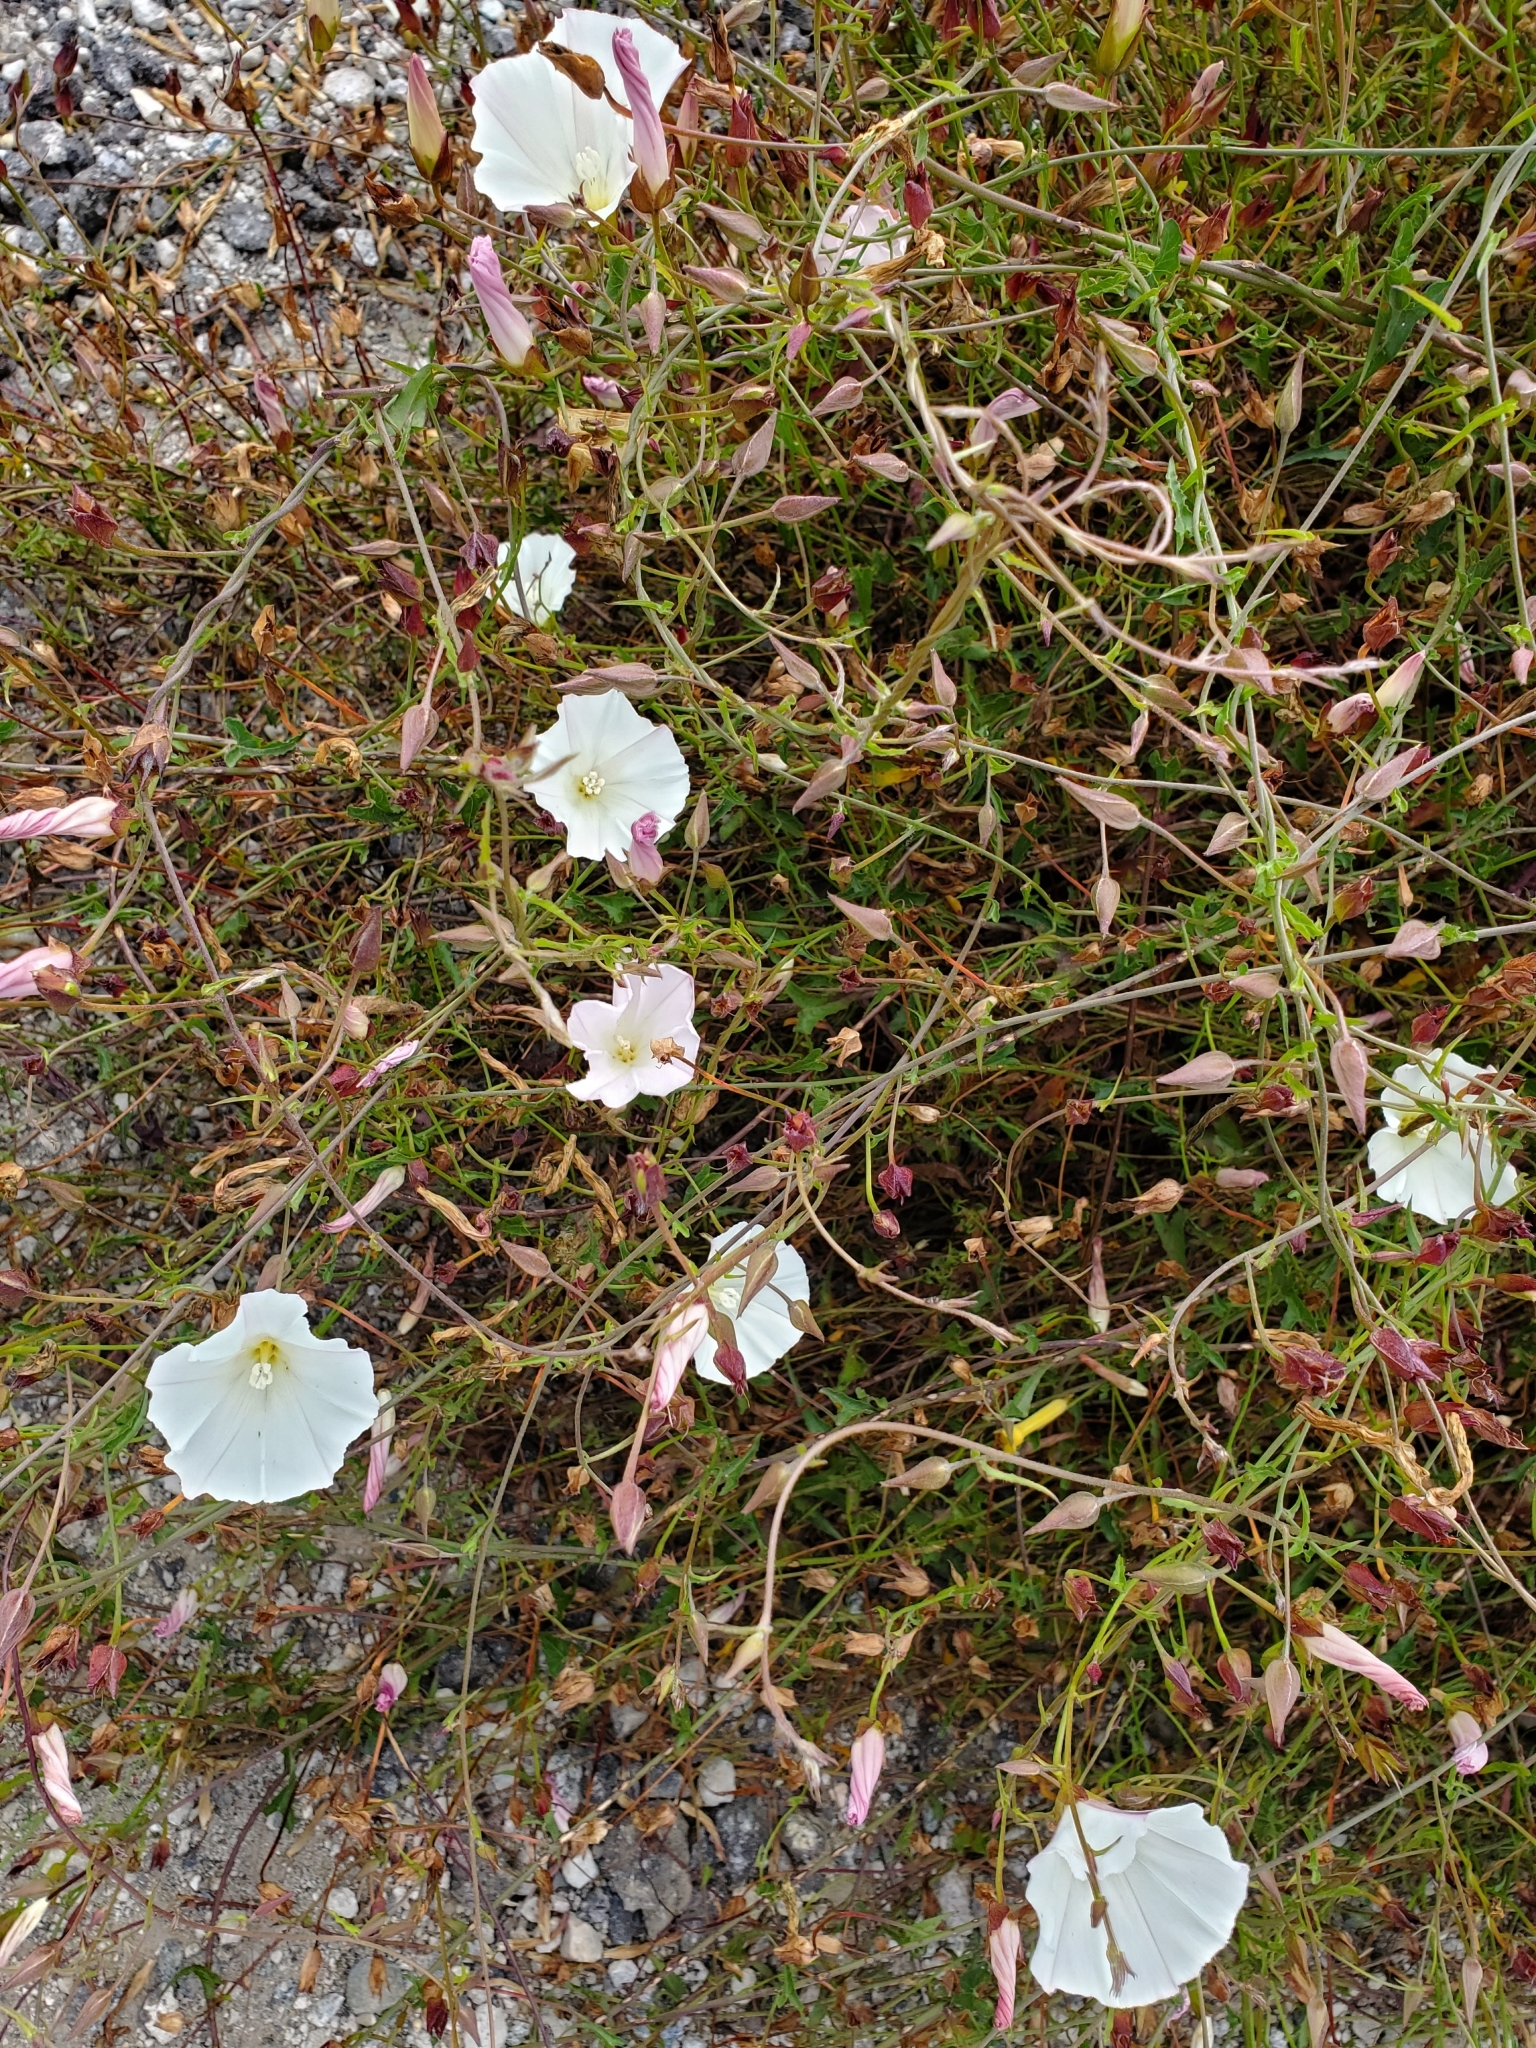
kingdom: Plantae
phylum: Tracheophyta
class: Magnoliopsida
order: Solanales
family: Convolvulaceae
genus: Calystegia
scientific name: Calystegia macrostegia
